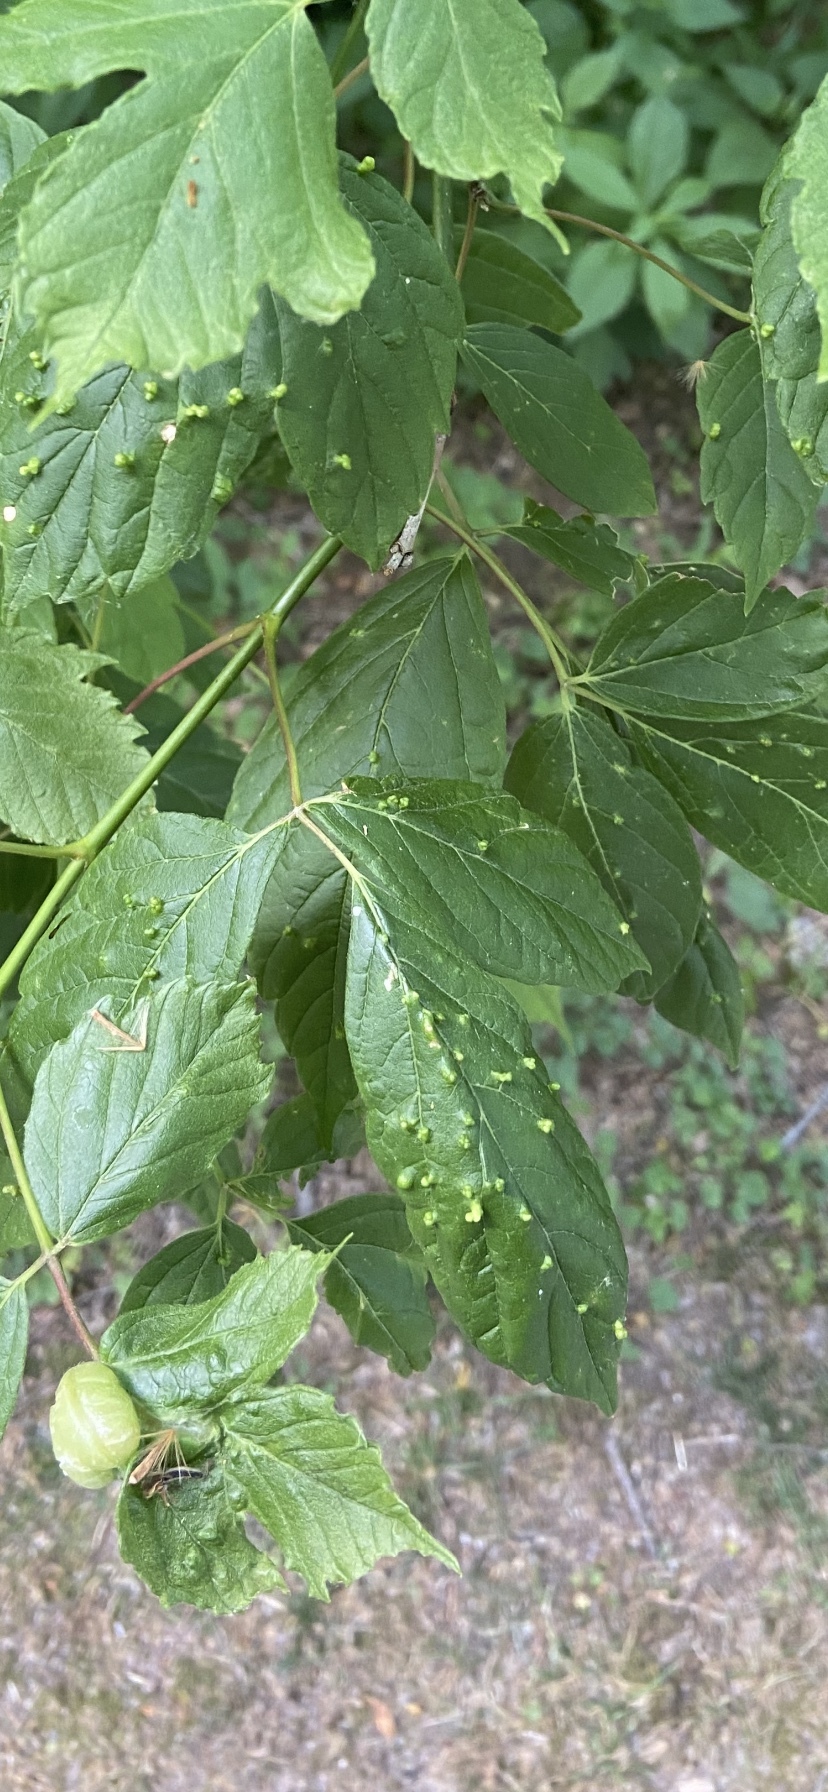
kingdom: Animalia
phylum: Arthropoda
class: Arachnida
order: Trombidiformes
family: Eriophyidae
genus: Aceria
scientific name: Aceria
